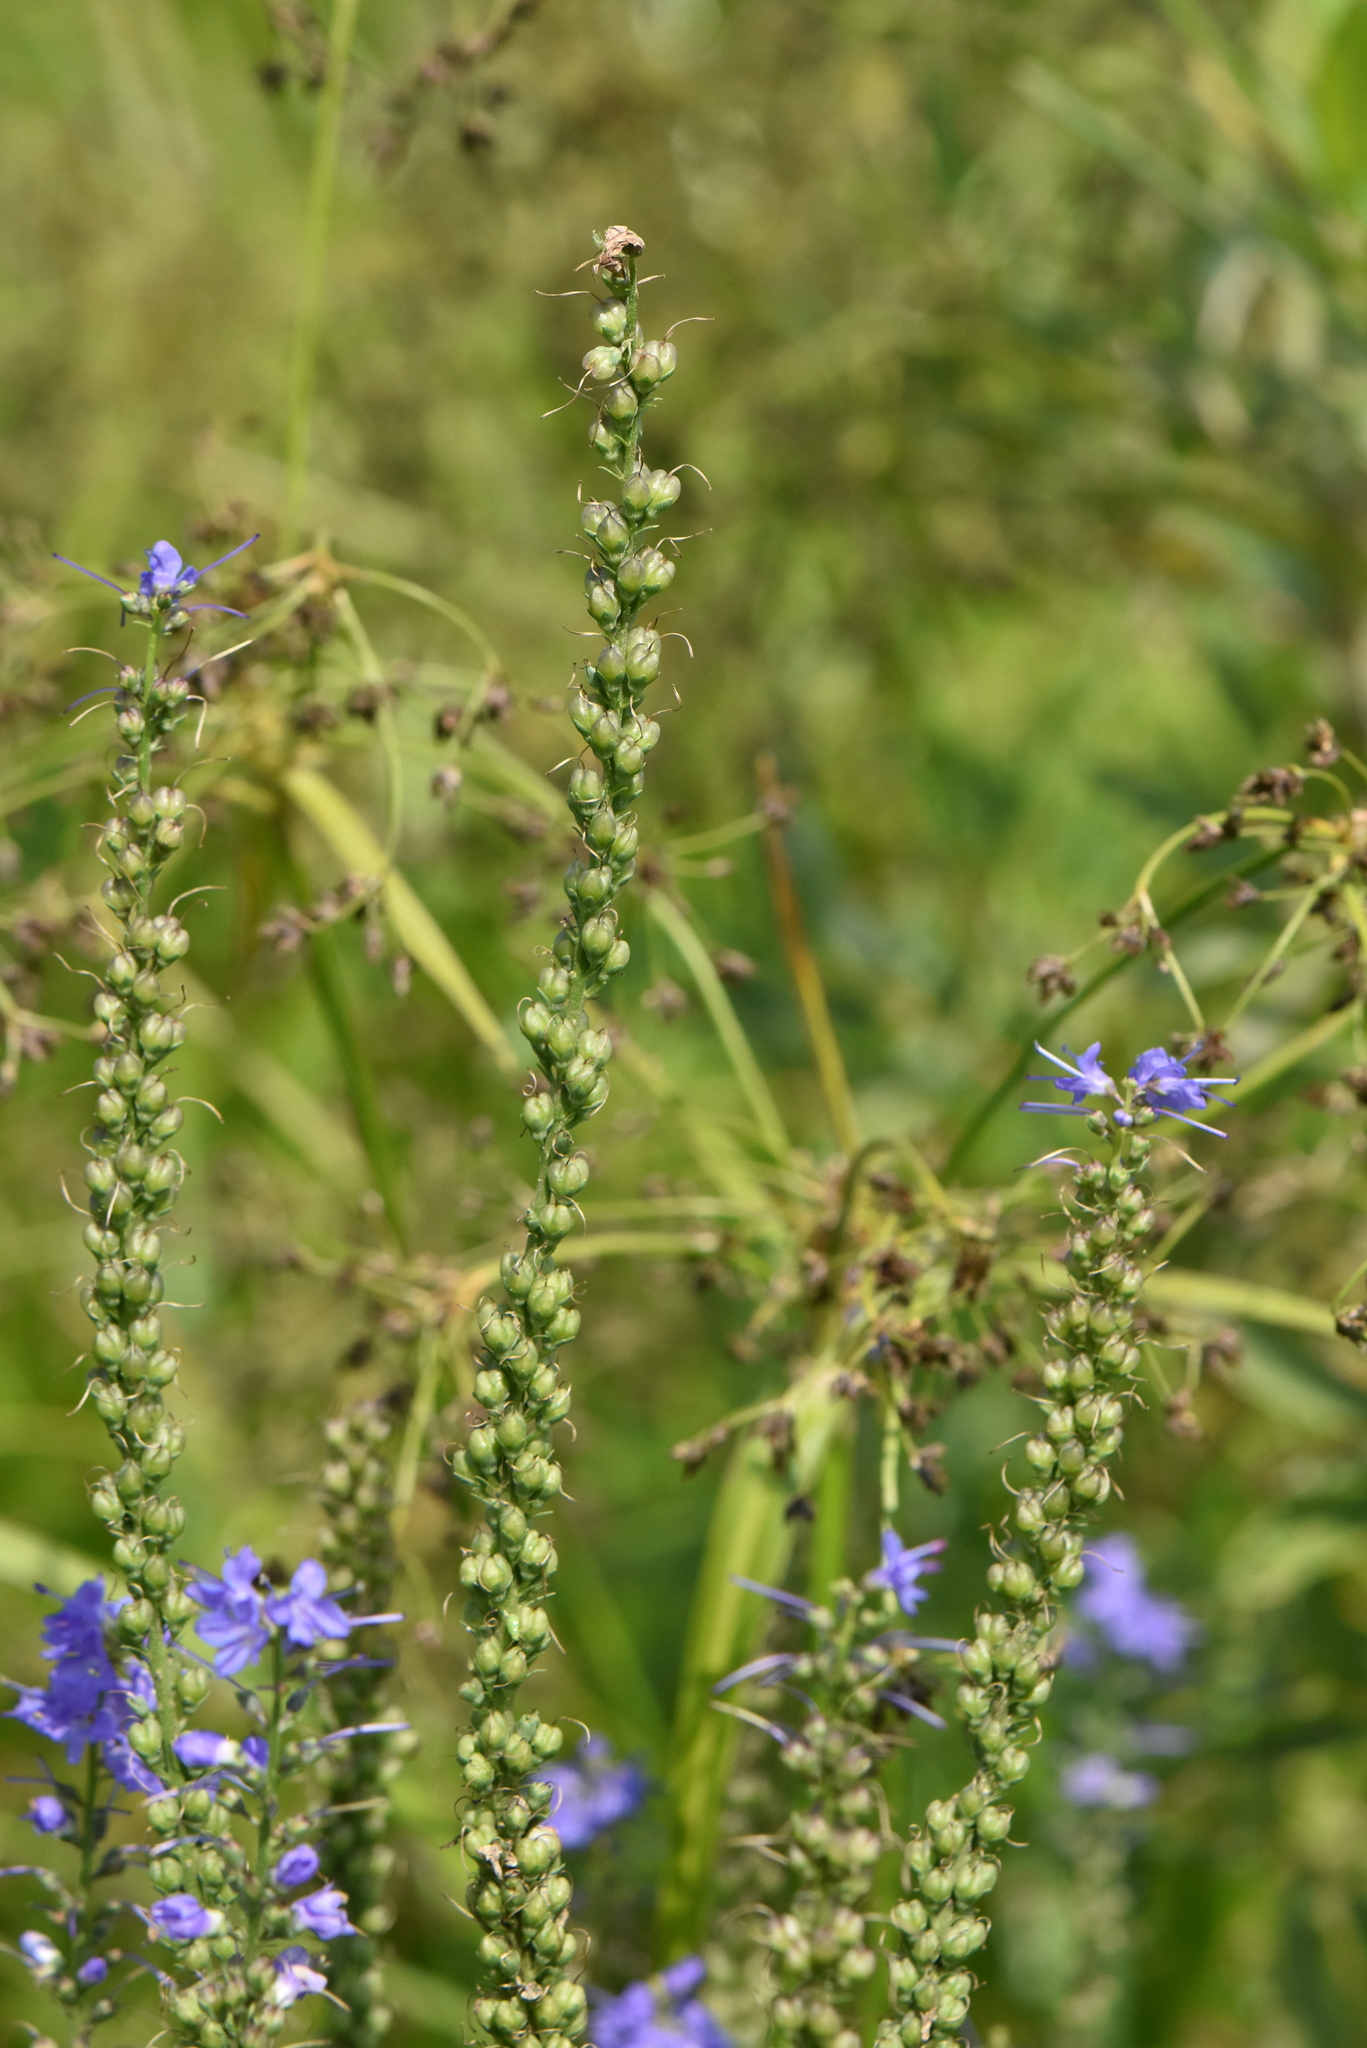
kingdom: Plantae
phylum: Tracheophyta
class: Magnoliopsida
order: Lamiales
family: Plantaginaceae
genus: Veronica
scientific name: Veronica longifolia
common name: Garden speedwell
